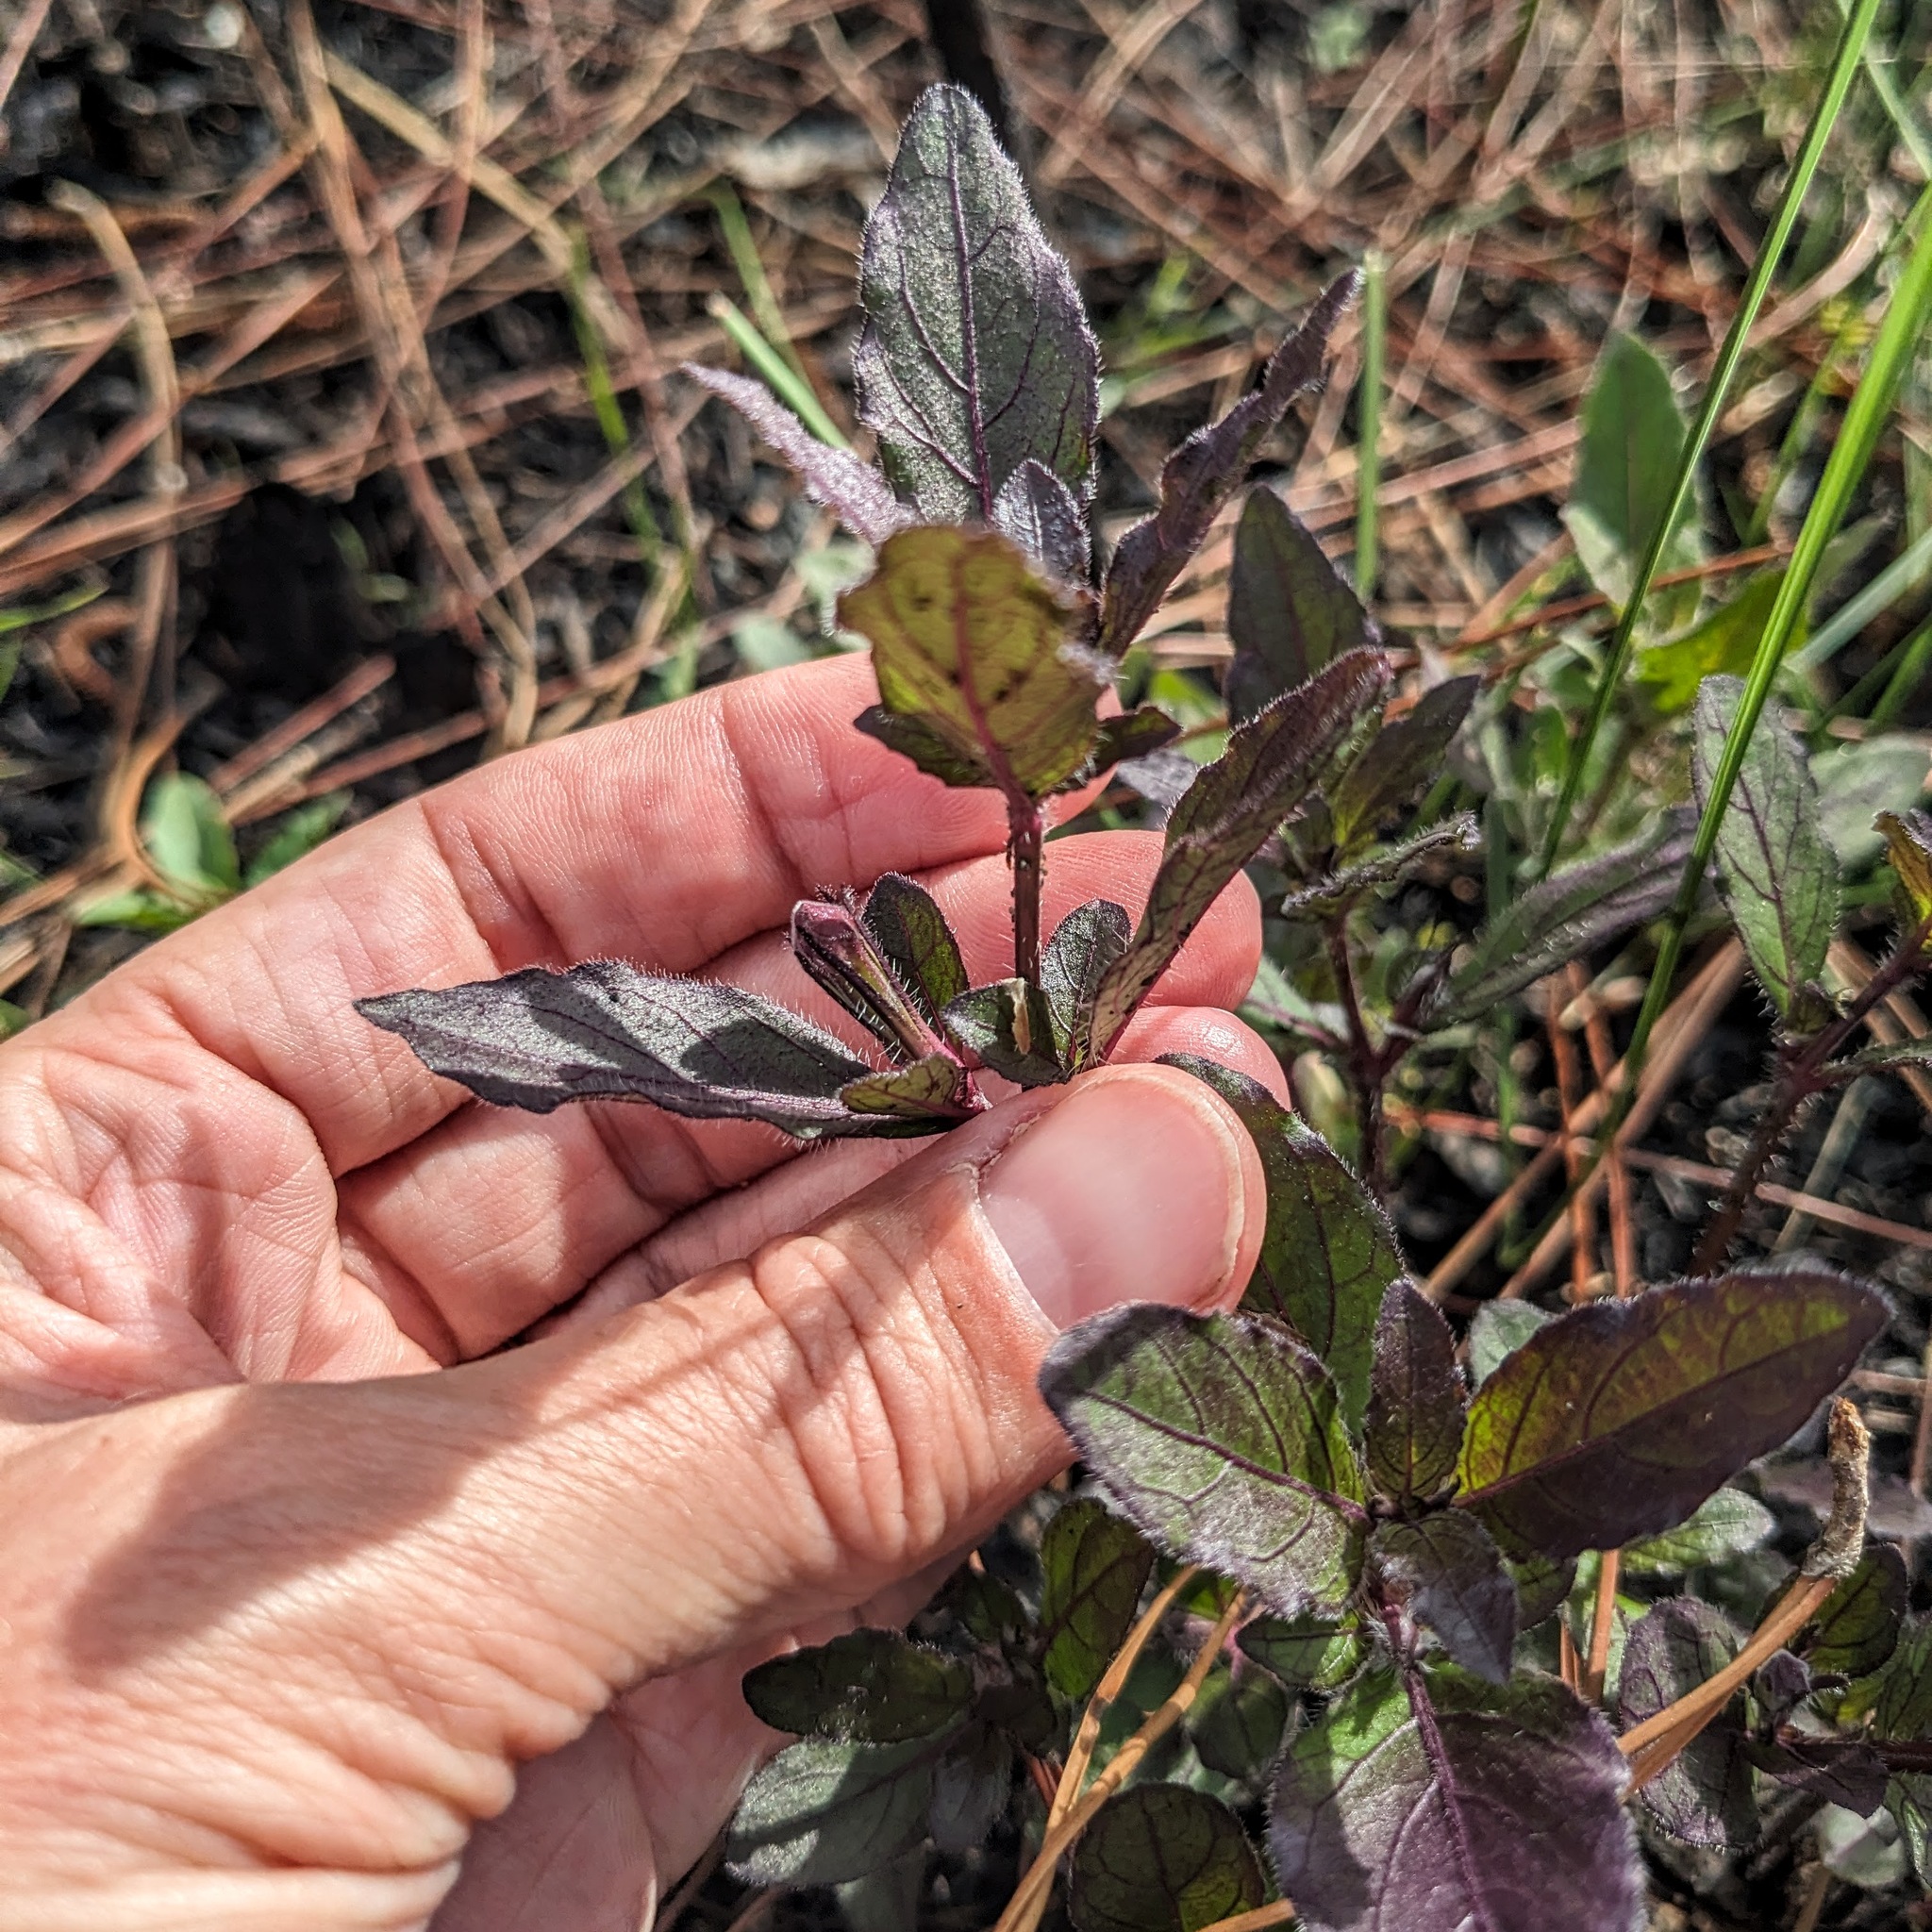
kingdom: Plantae
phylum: Tracheophyta
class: Magnoliopsida
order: Lamiales
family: Acanthaceae
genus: Ruellia
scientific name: Ruellia caroliniensis
